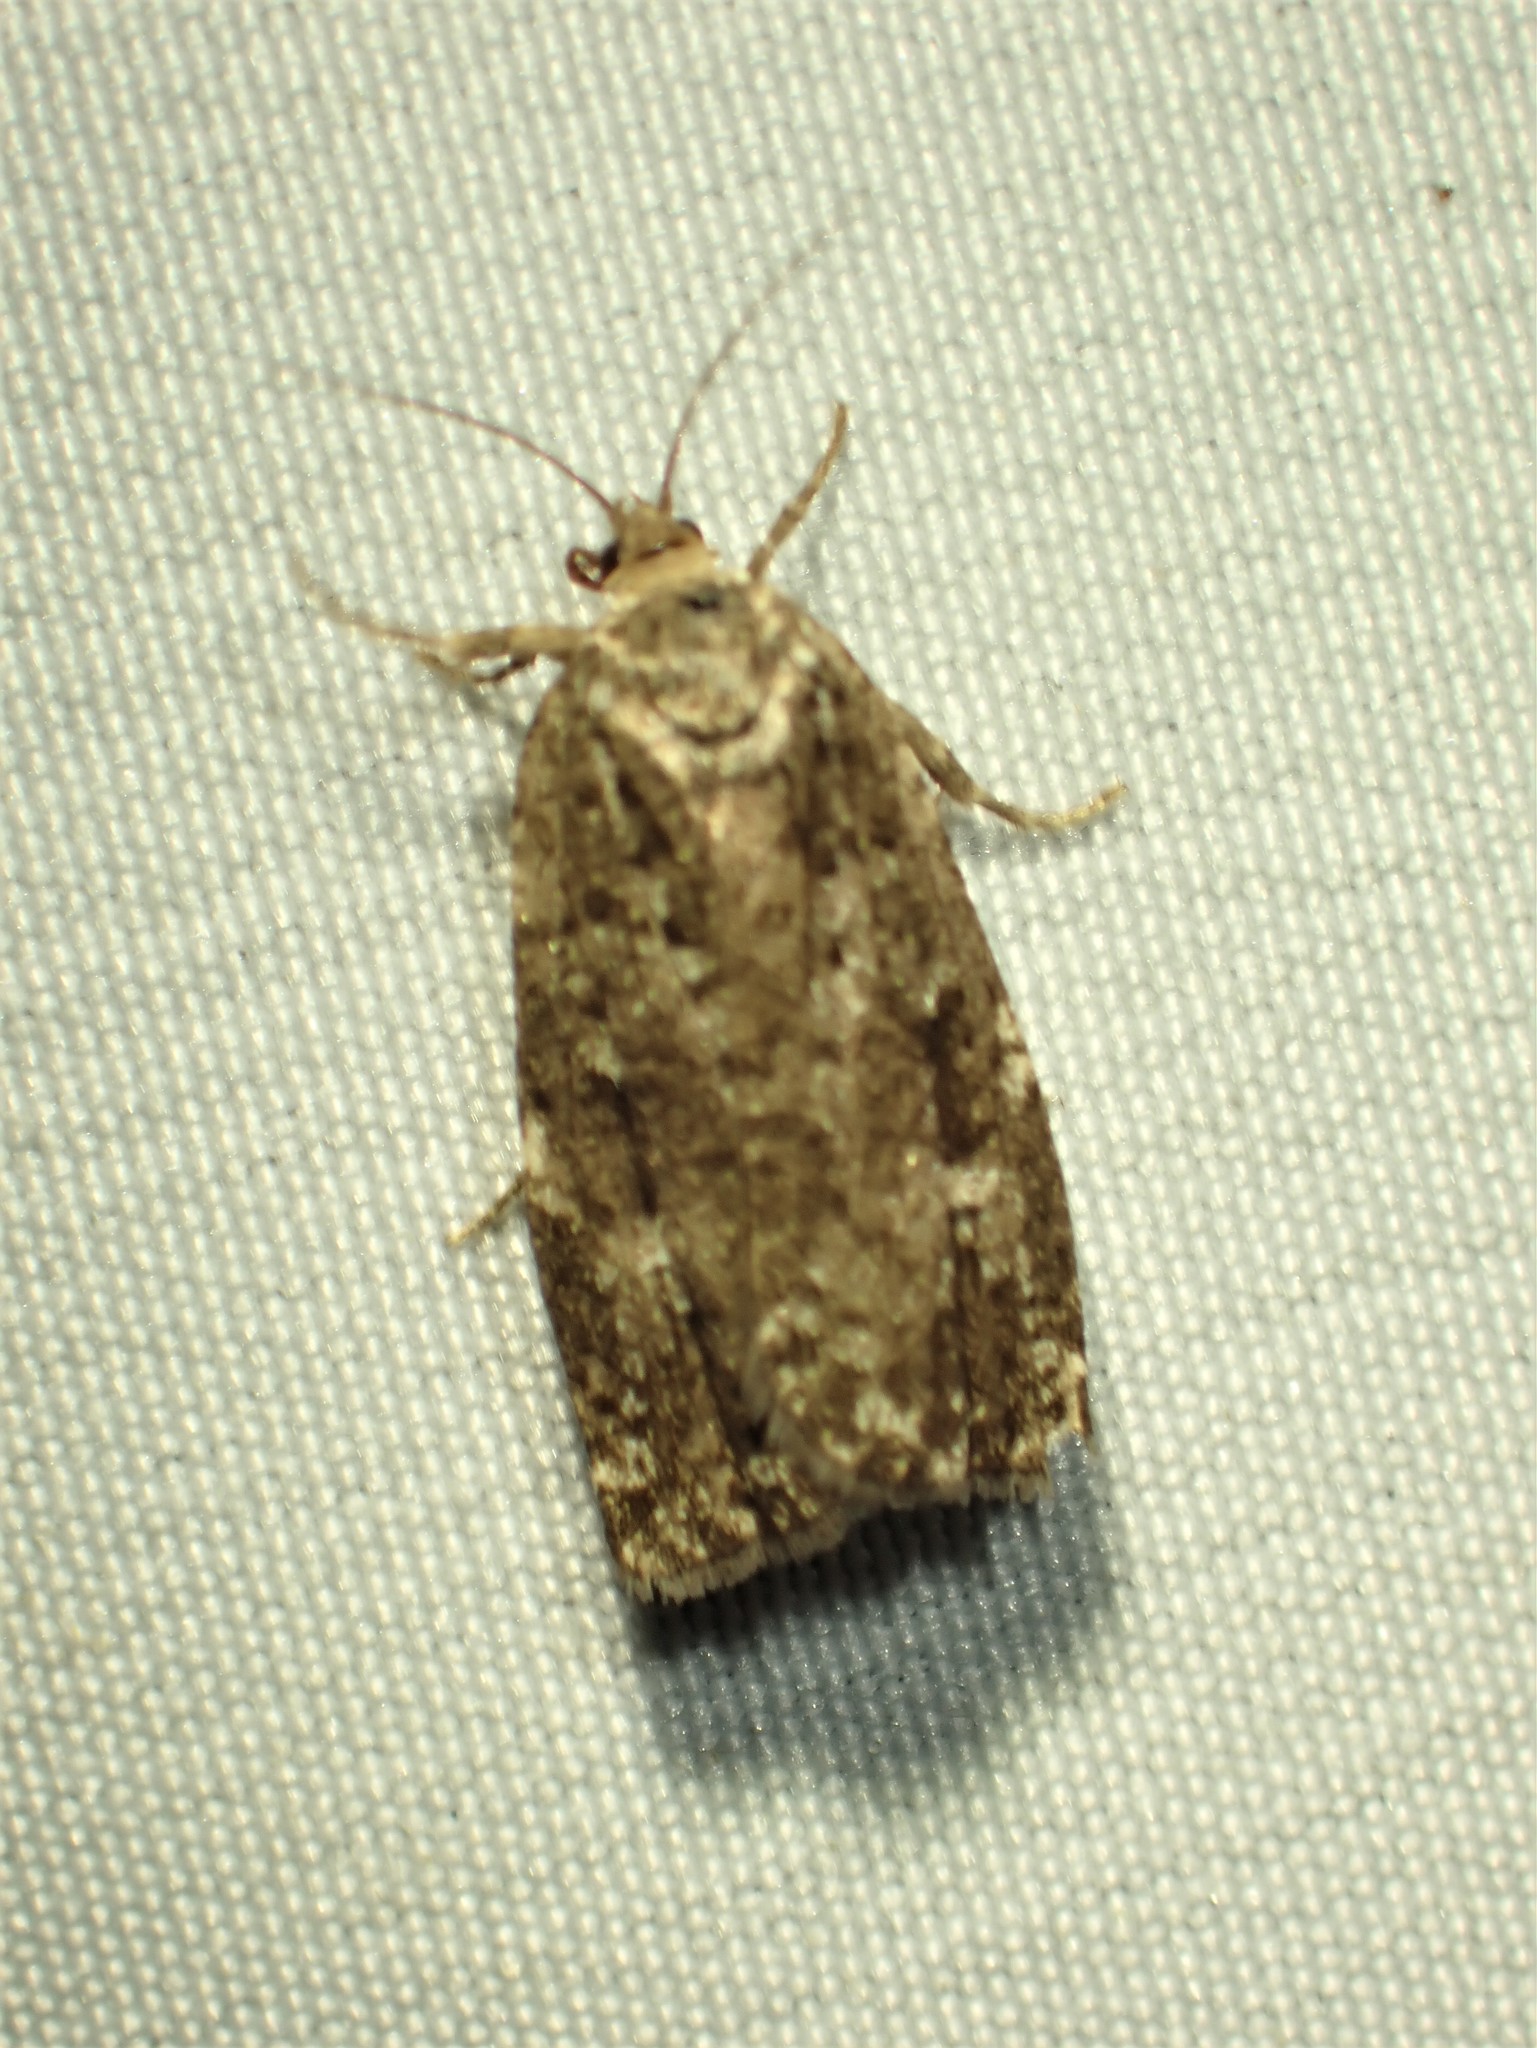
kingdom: Animalia
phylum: Arthropoda
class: Insecta
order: Lepidoptera
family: Tortricidae
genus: Choristoneura
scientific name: Choristoneura fumiferana
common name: Spruce budworm
